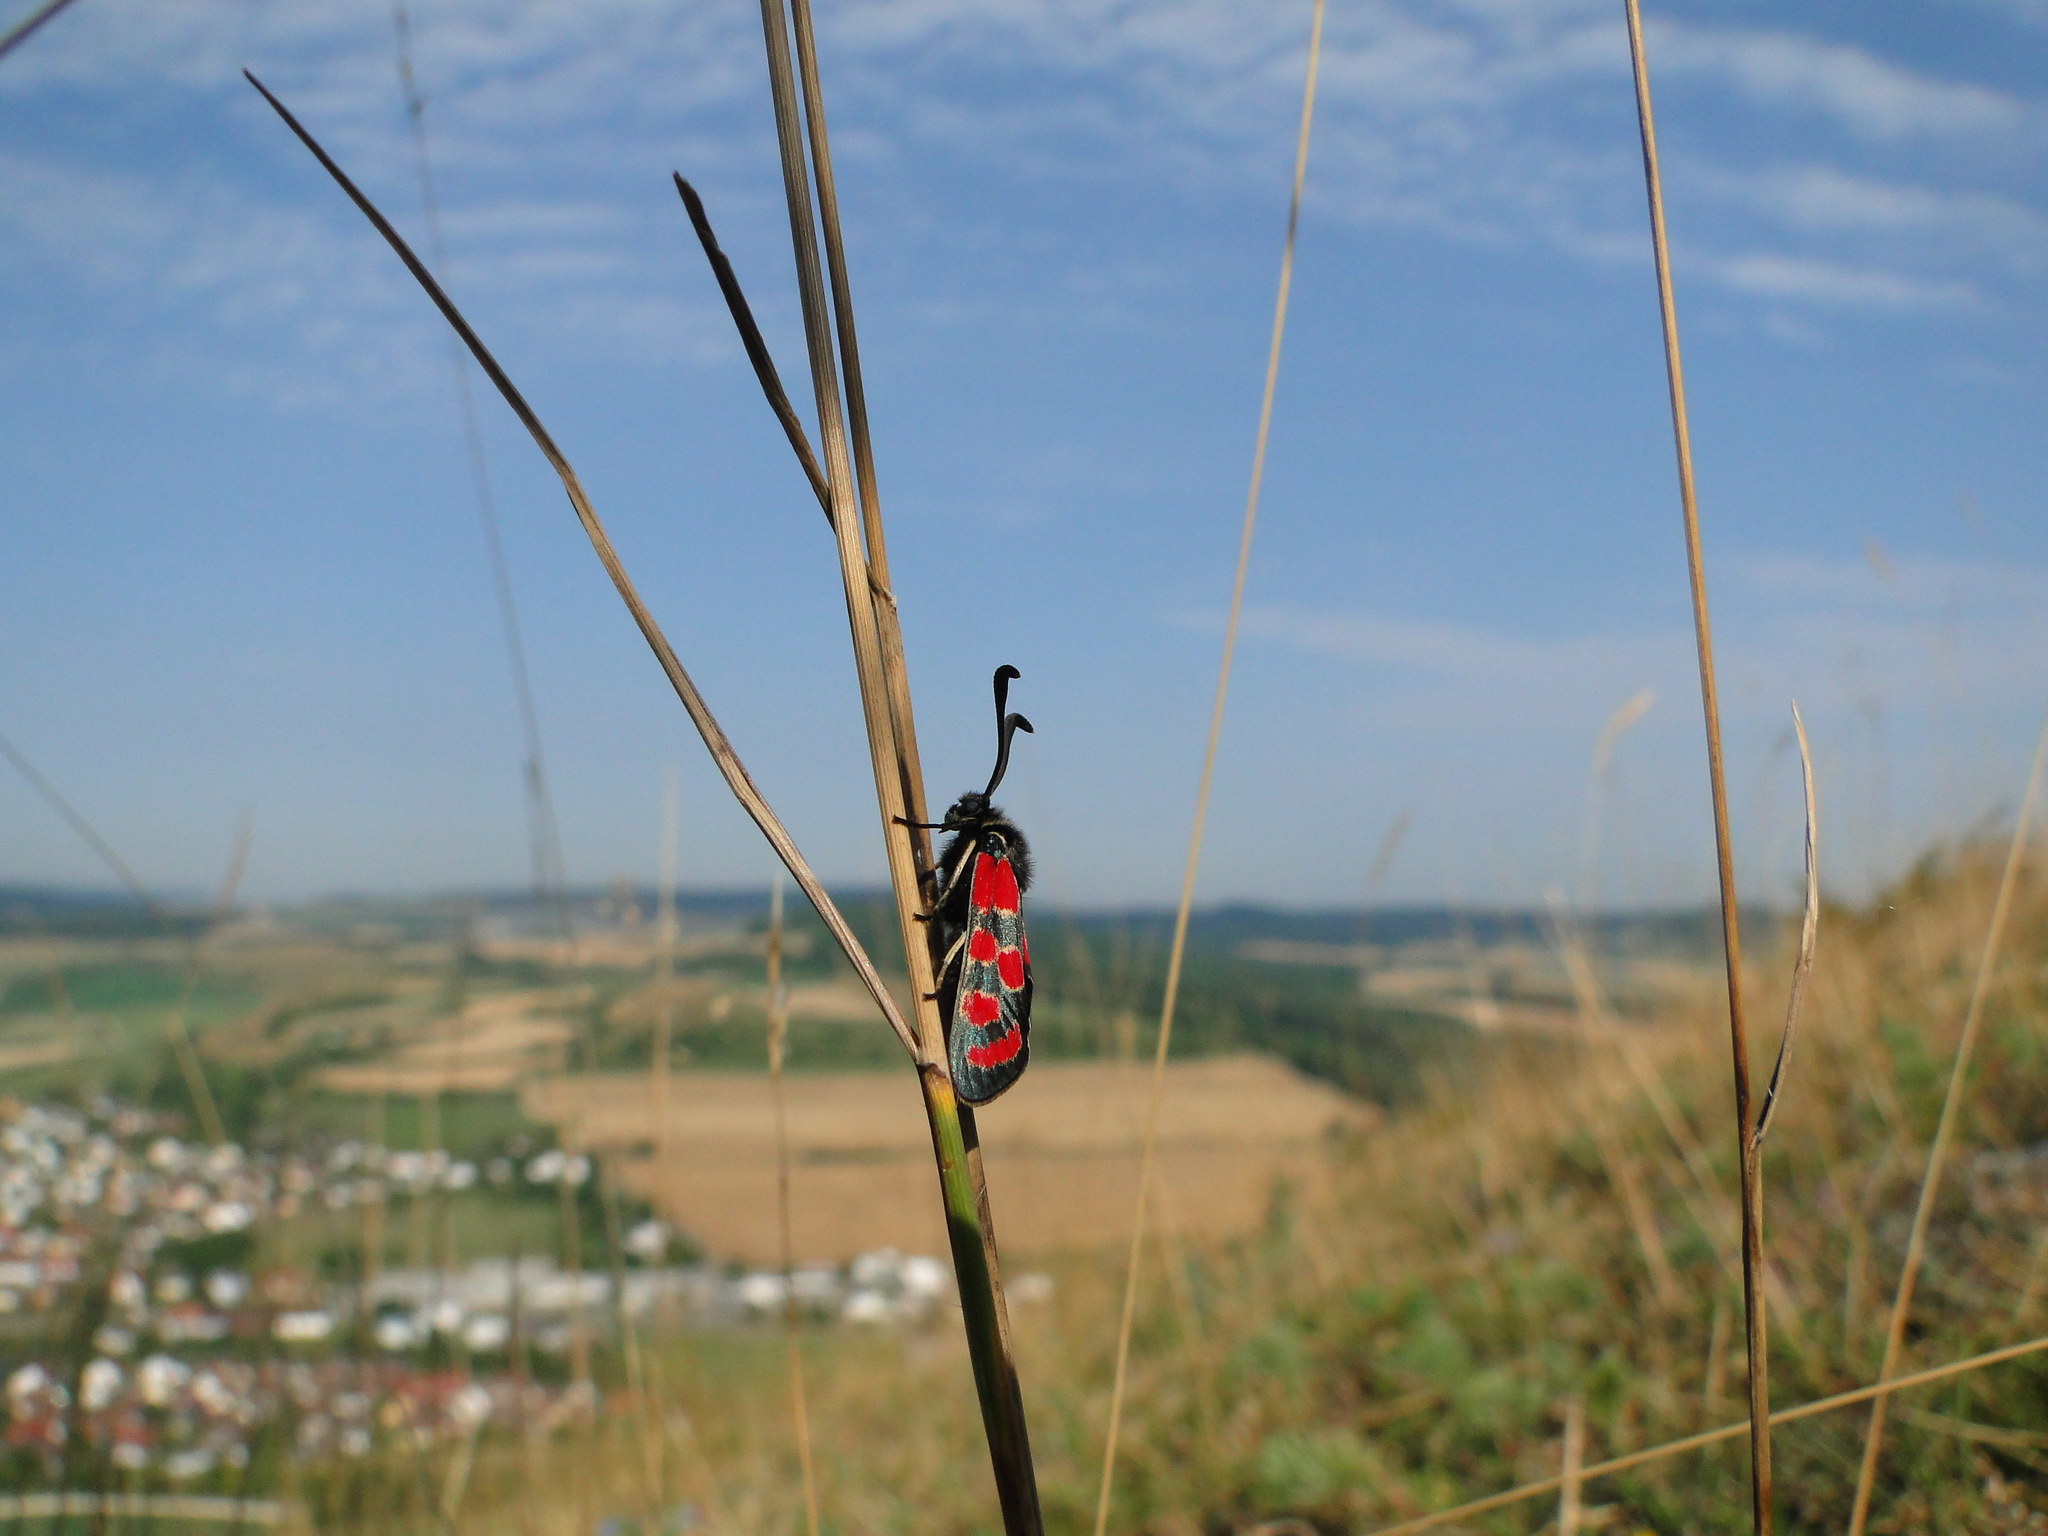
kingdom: Animalia
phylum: Arthropoda
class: Insecta
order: Lepidoptera
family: Zygaenidae
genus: Zygaena
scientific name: Zygaena carniolica
